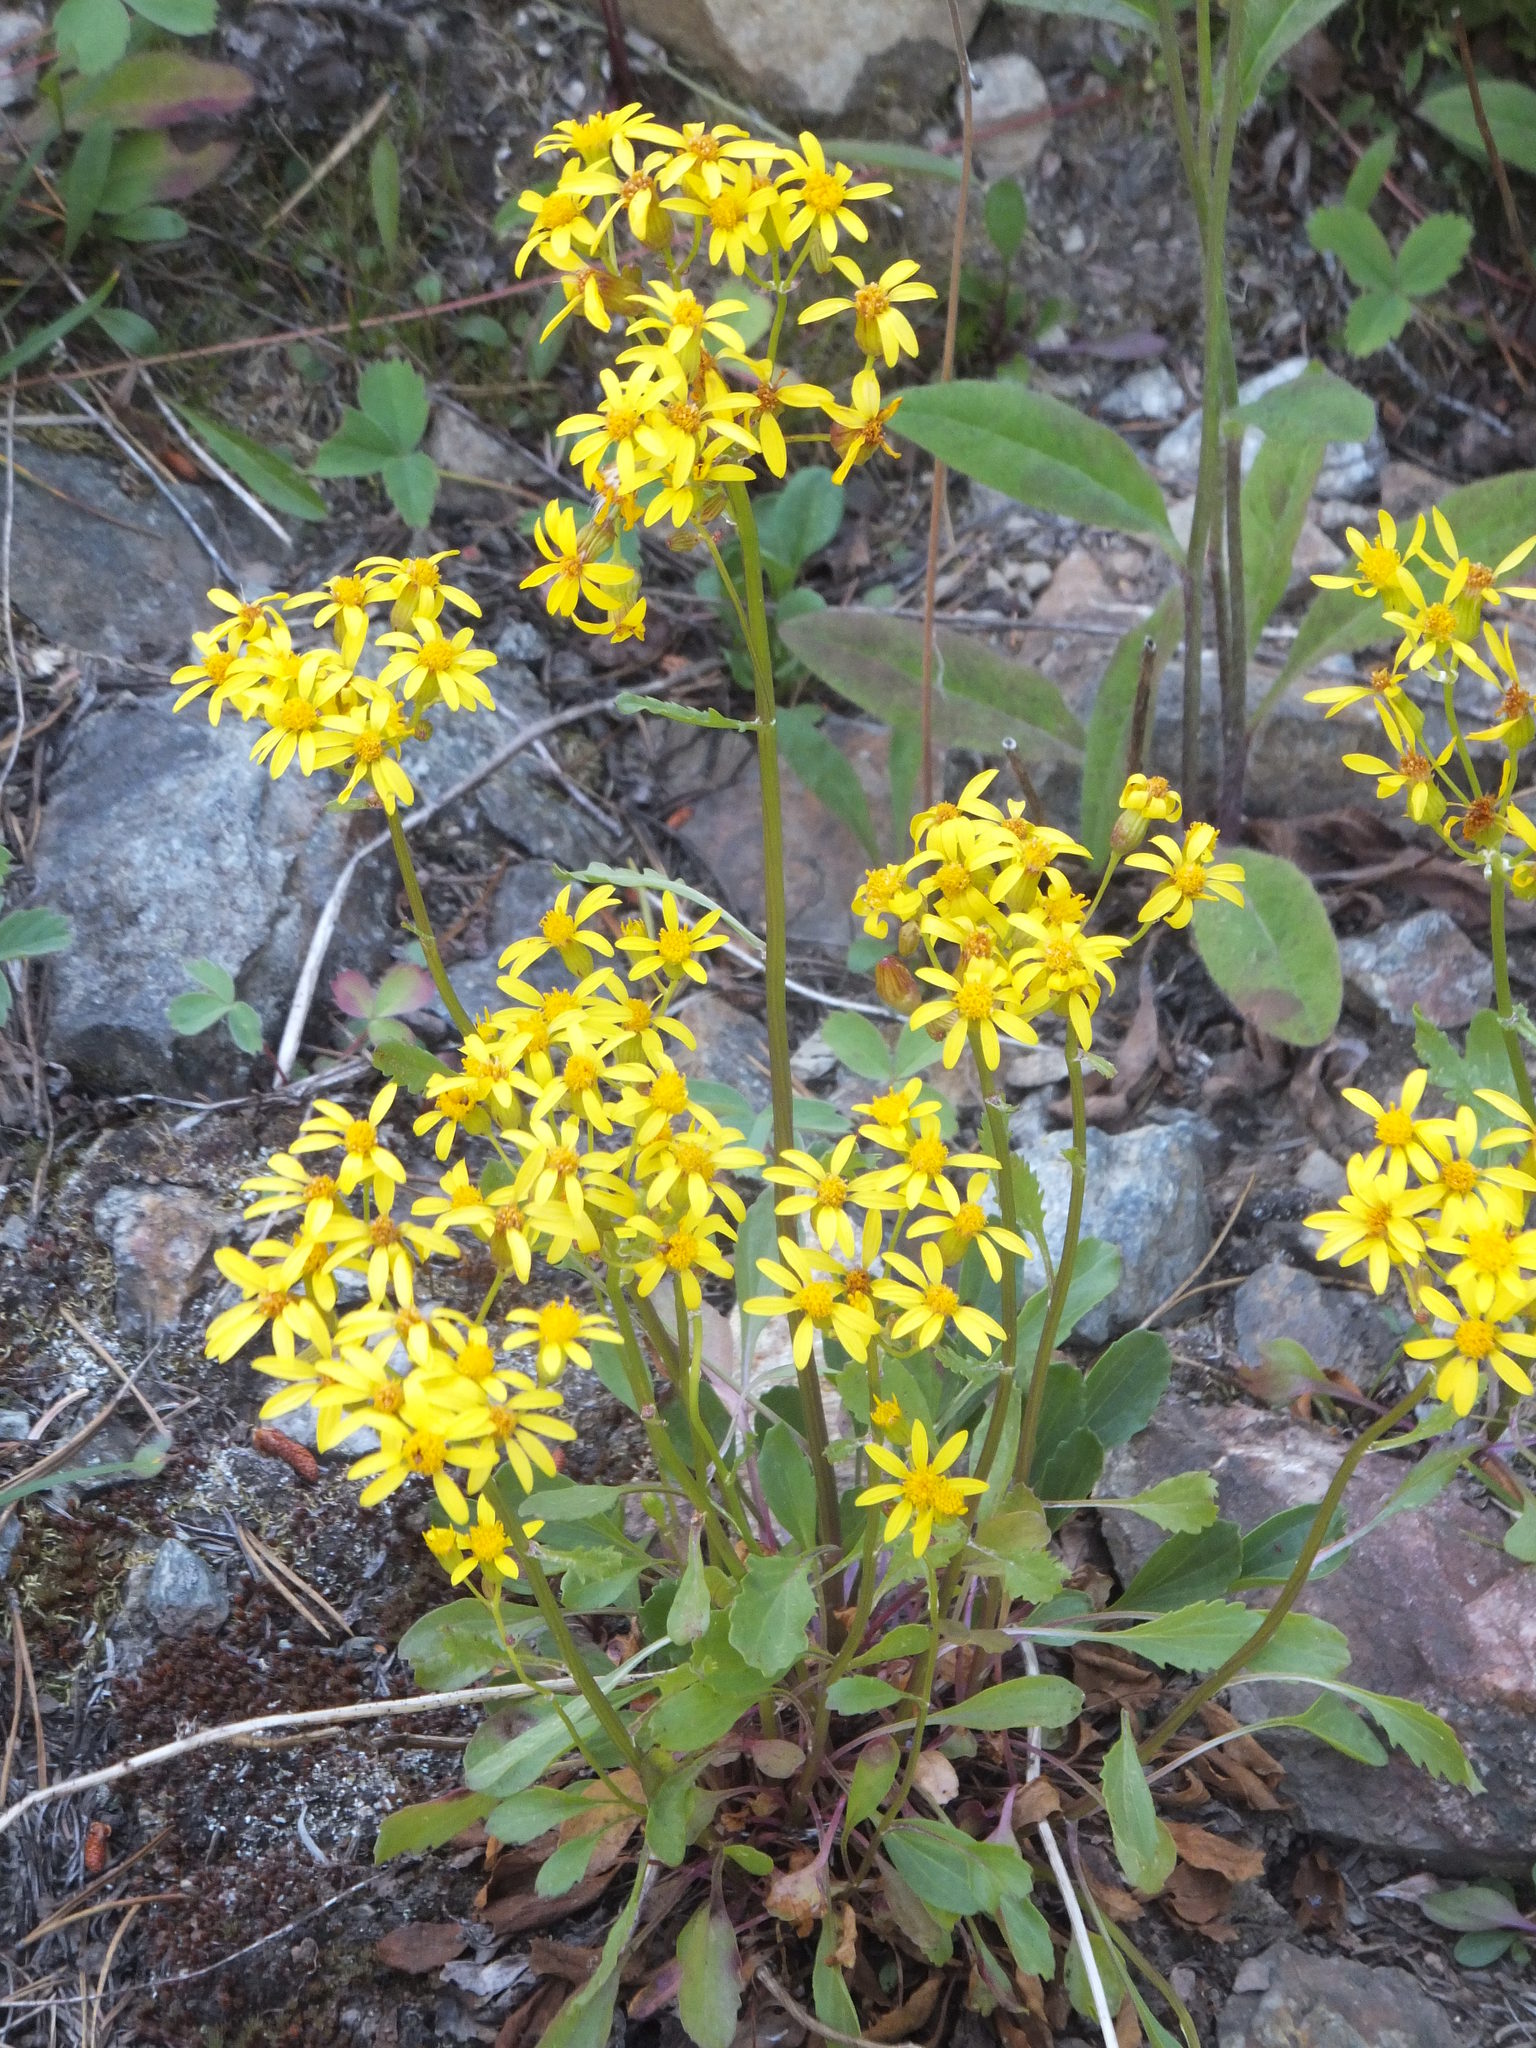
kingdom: Plantae
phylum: Tracheophyta
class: Magnoliopsida
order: Asterales
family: Asteraceae
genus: Packera
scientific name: Packera streptanthifolia
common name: Rocky mountain butterweed
